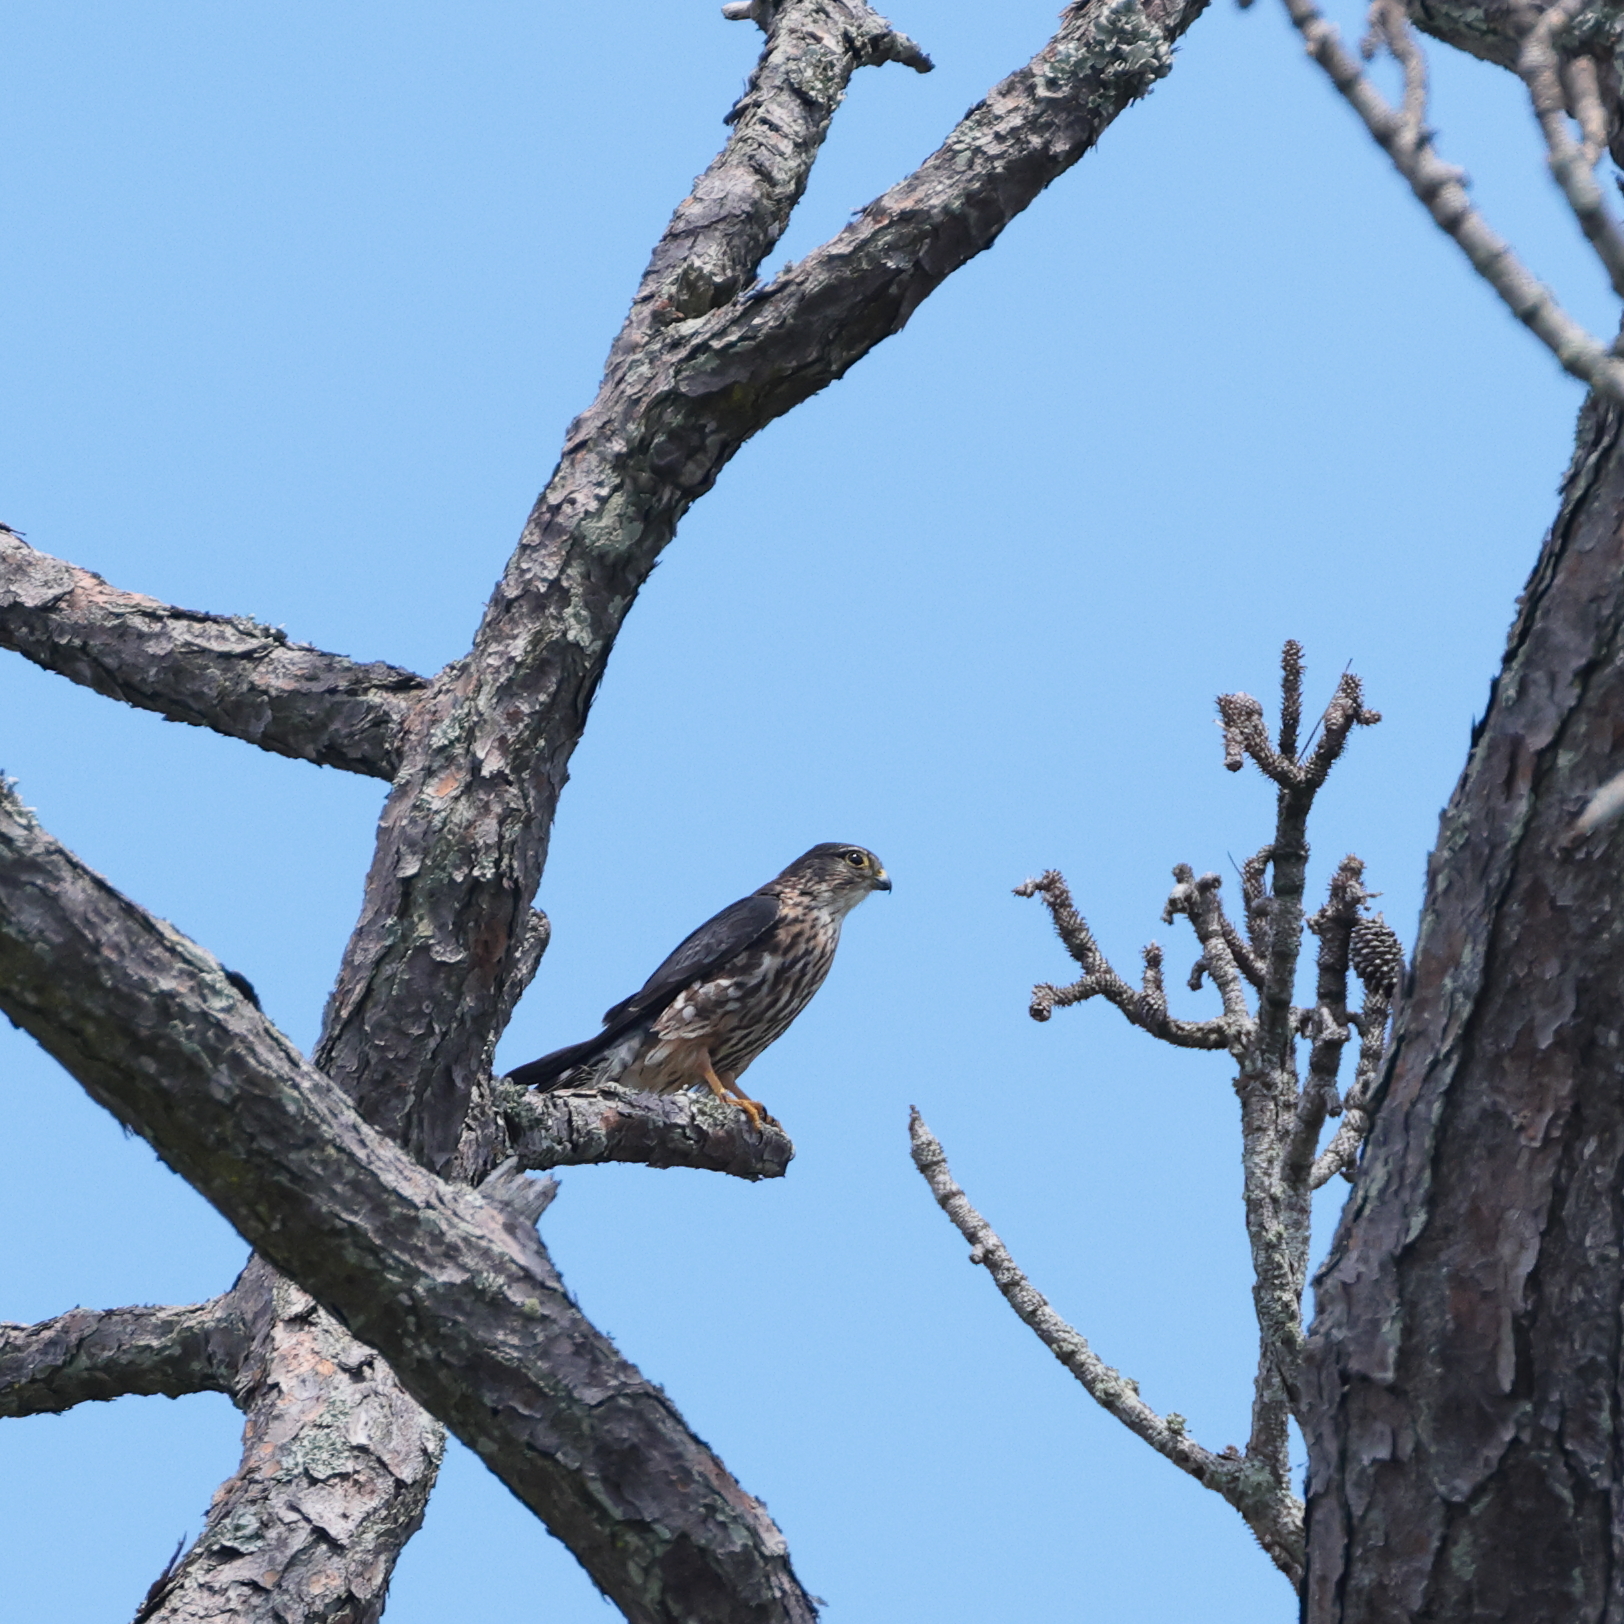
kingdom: Animalia
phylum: Chordata
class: Aves
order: Falconiformes
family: Falconidae
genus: Falco
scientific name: Falco columbarius
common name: Merlin
